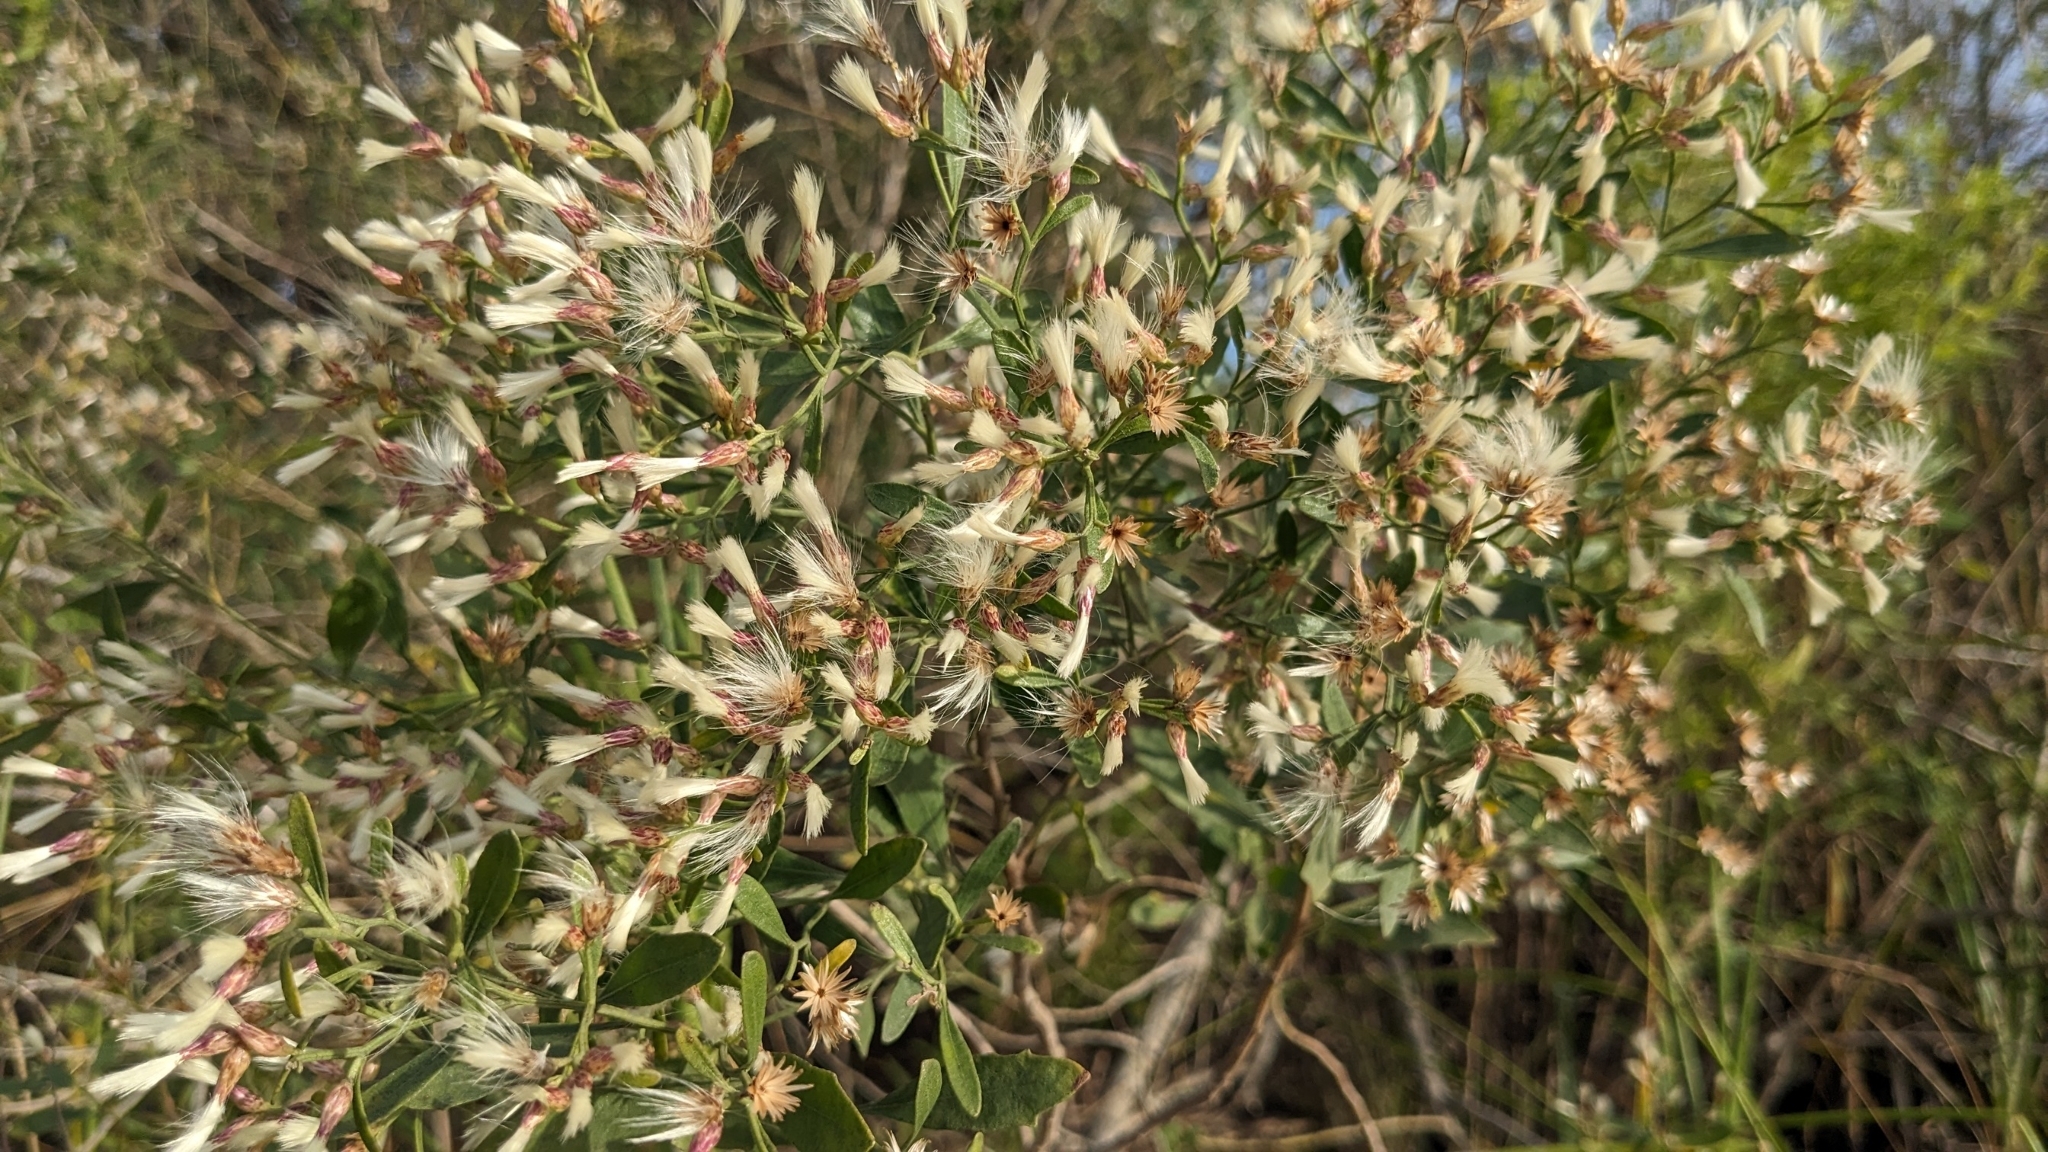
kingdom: Plantae
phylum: Tracheophyta
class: Magnoliopsida
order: Asterales
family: Asteraceae
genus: Baccharis
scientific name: Baccharis halimifolia
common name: Eastern baccharis
